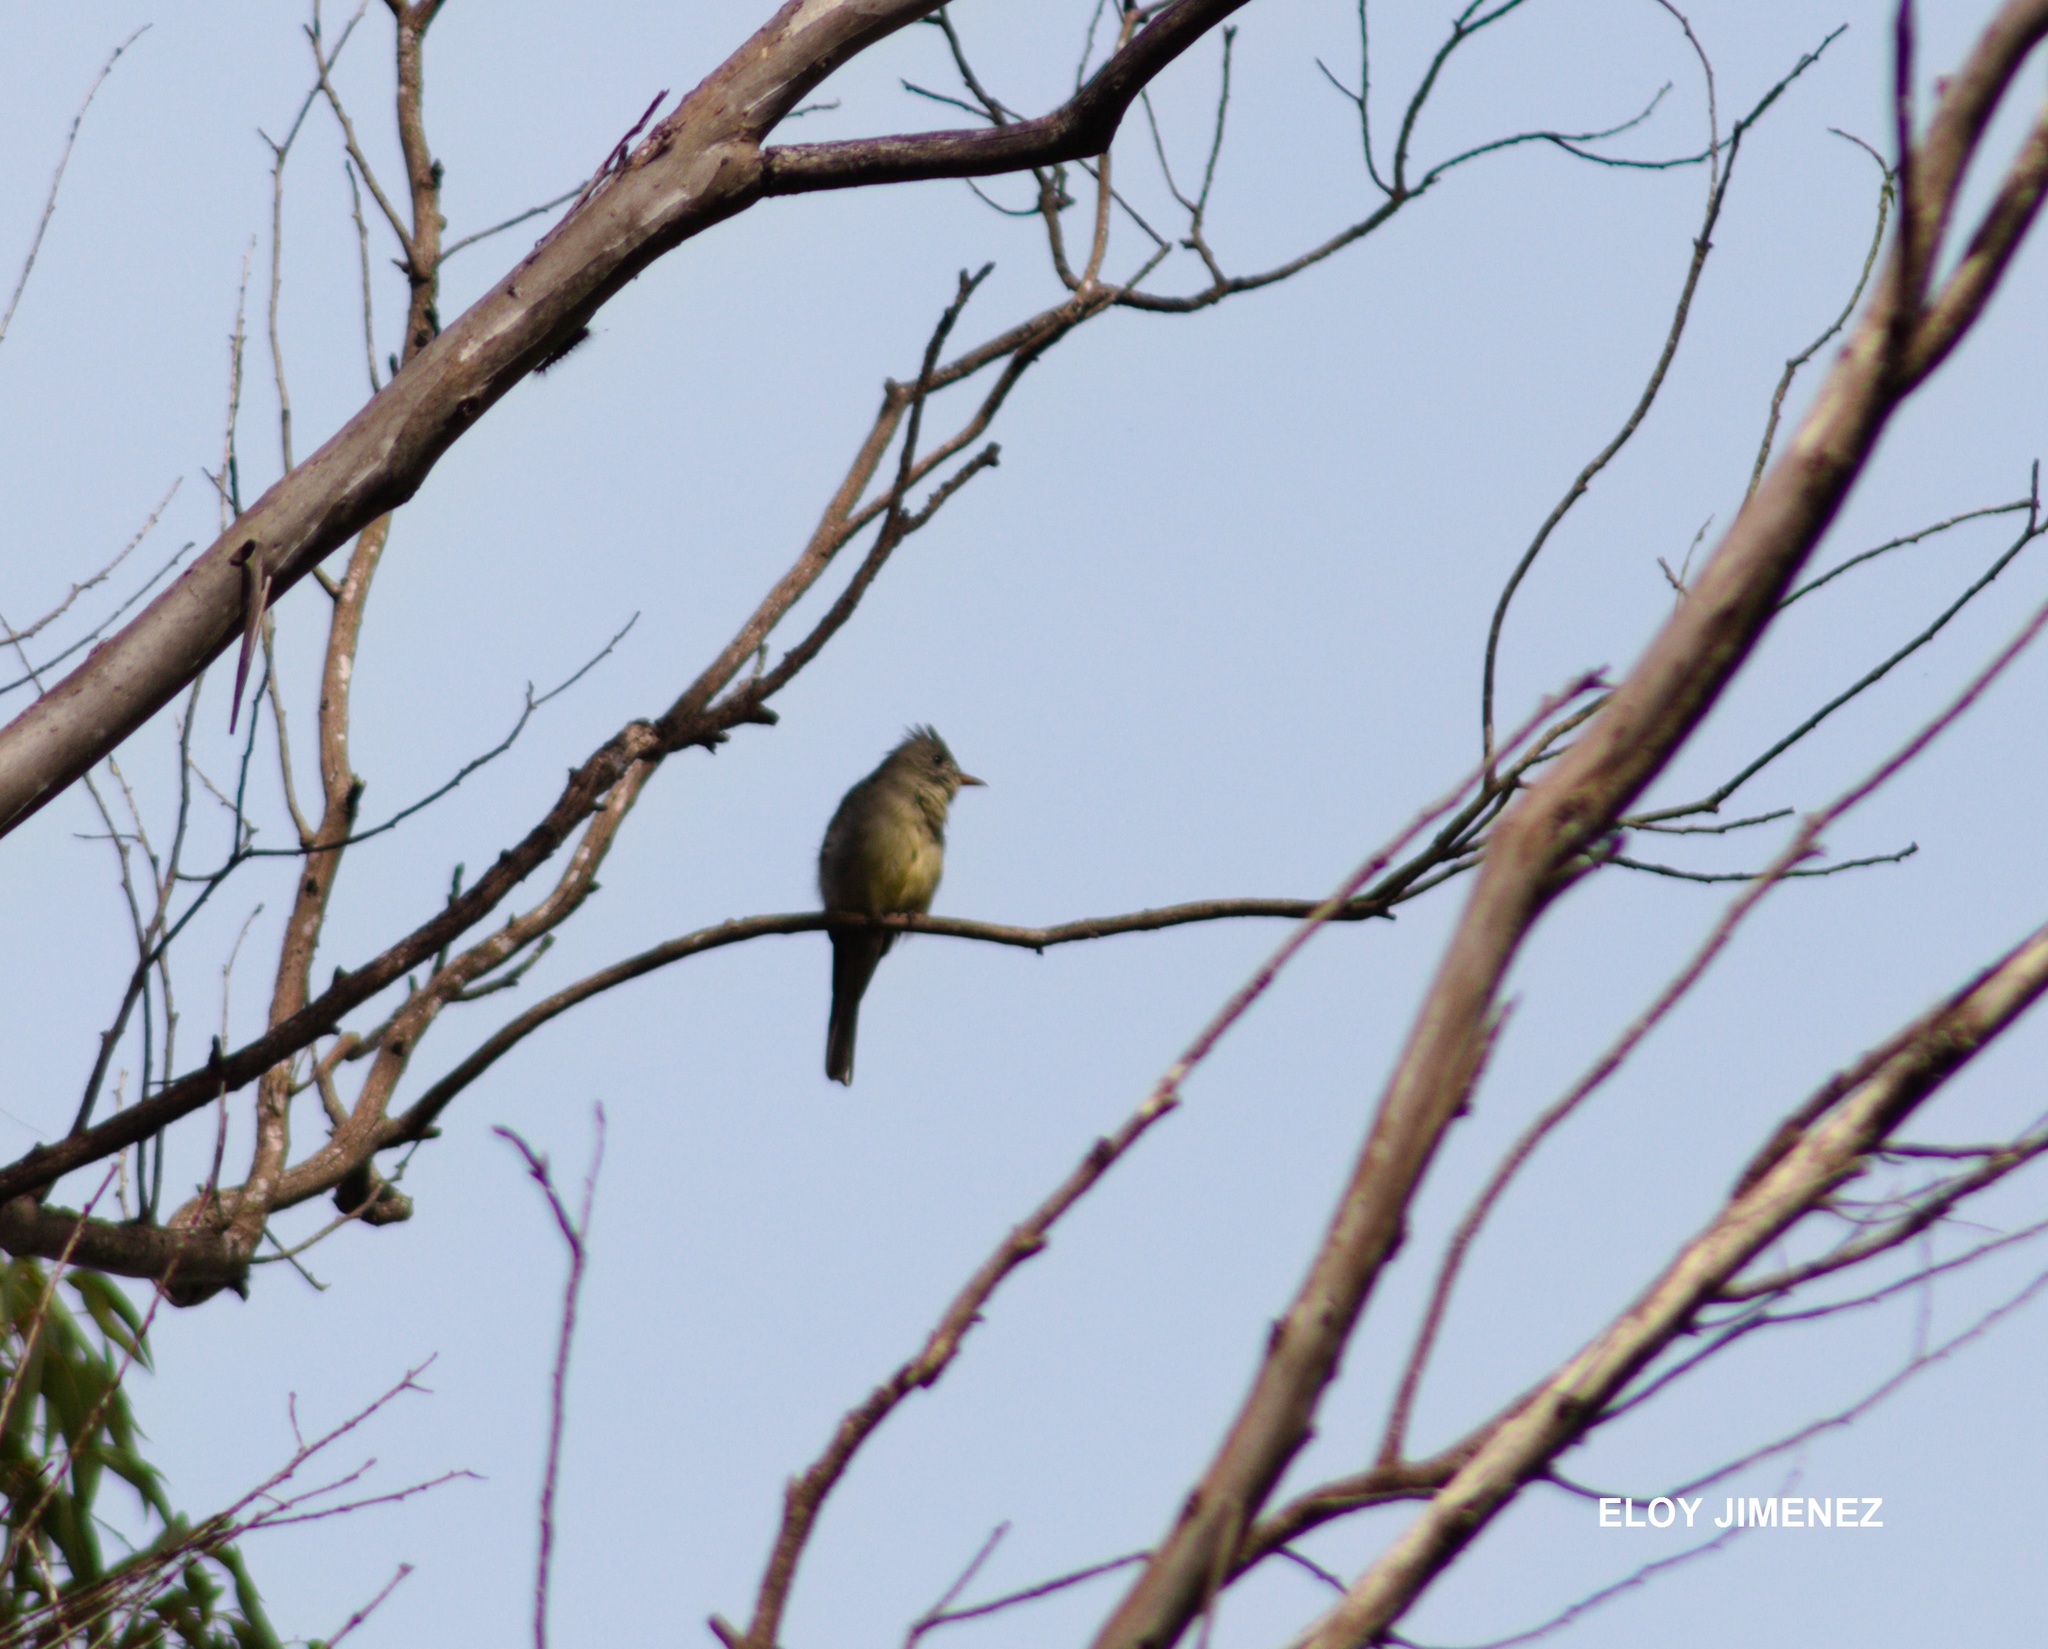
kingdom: Animalia
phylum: Chordata
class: Aves
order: Passeriformes
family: Tyrannidae
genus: Contopus
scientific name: Contopus pertinax
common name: Greater pewee
